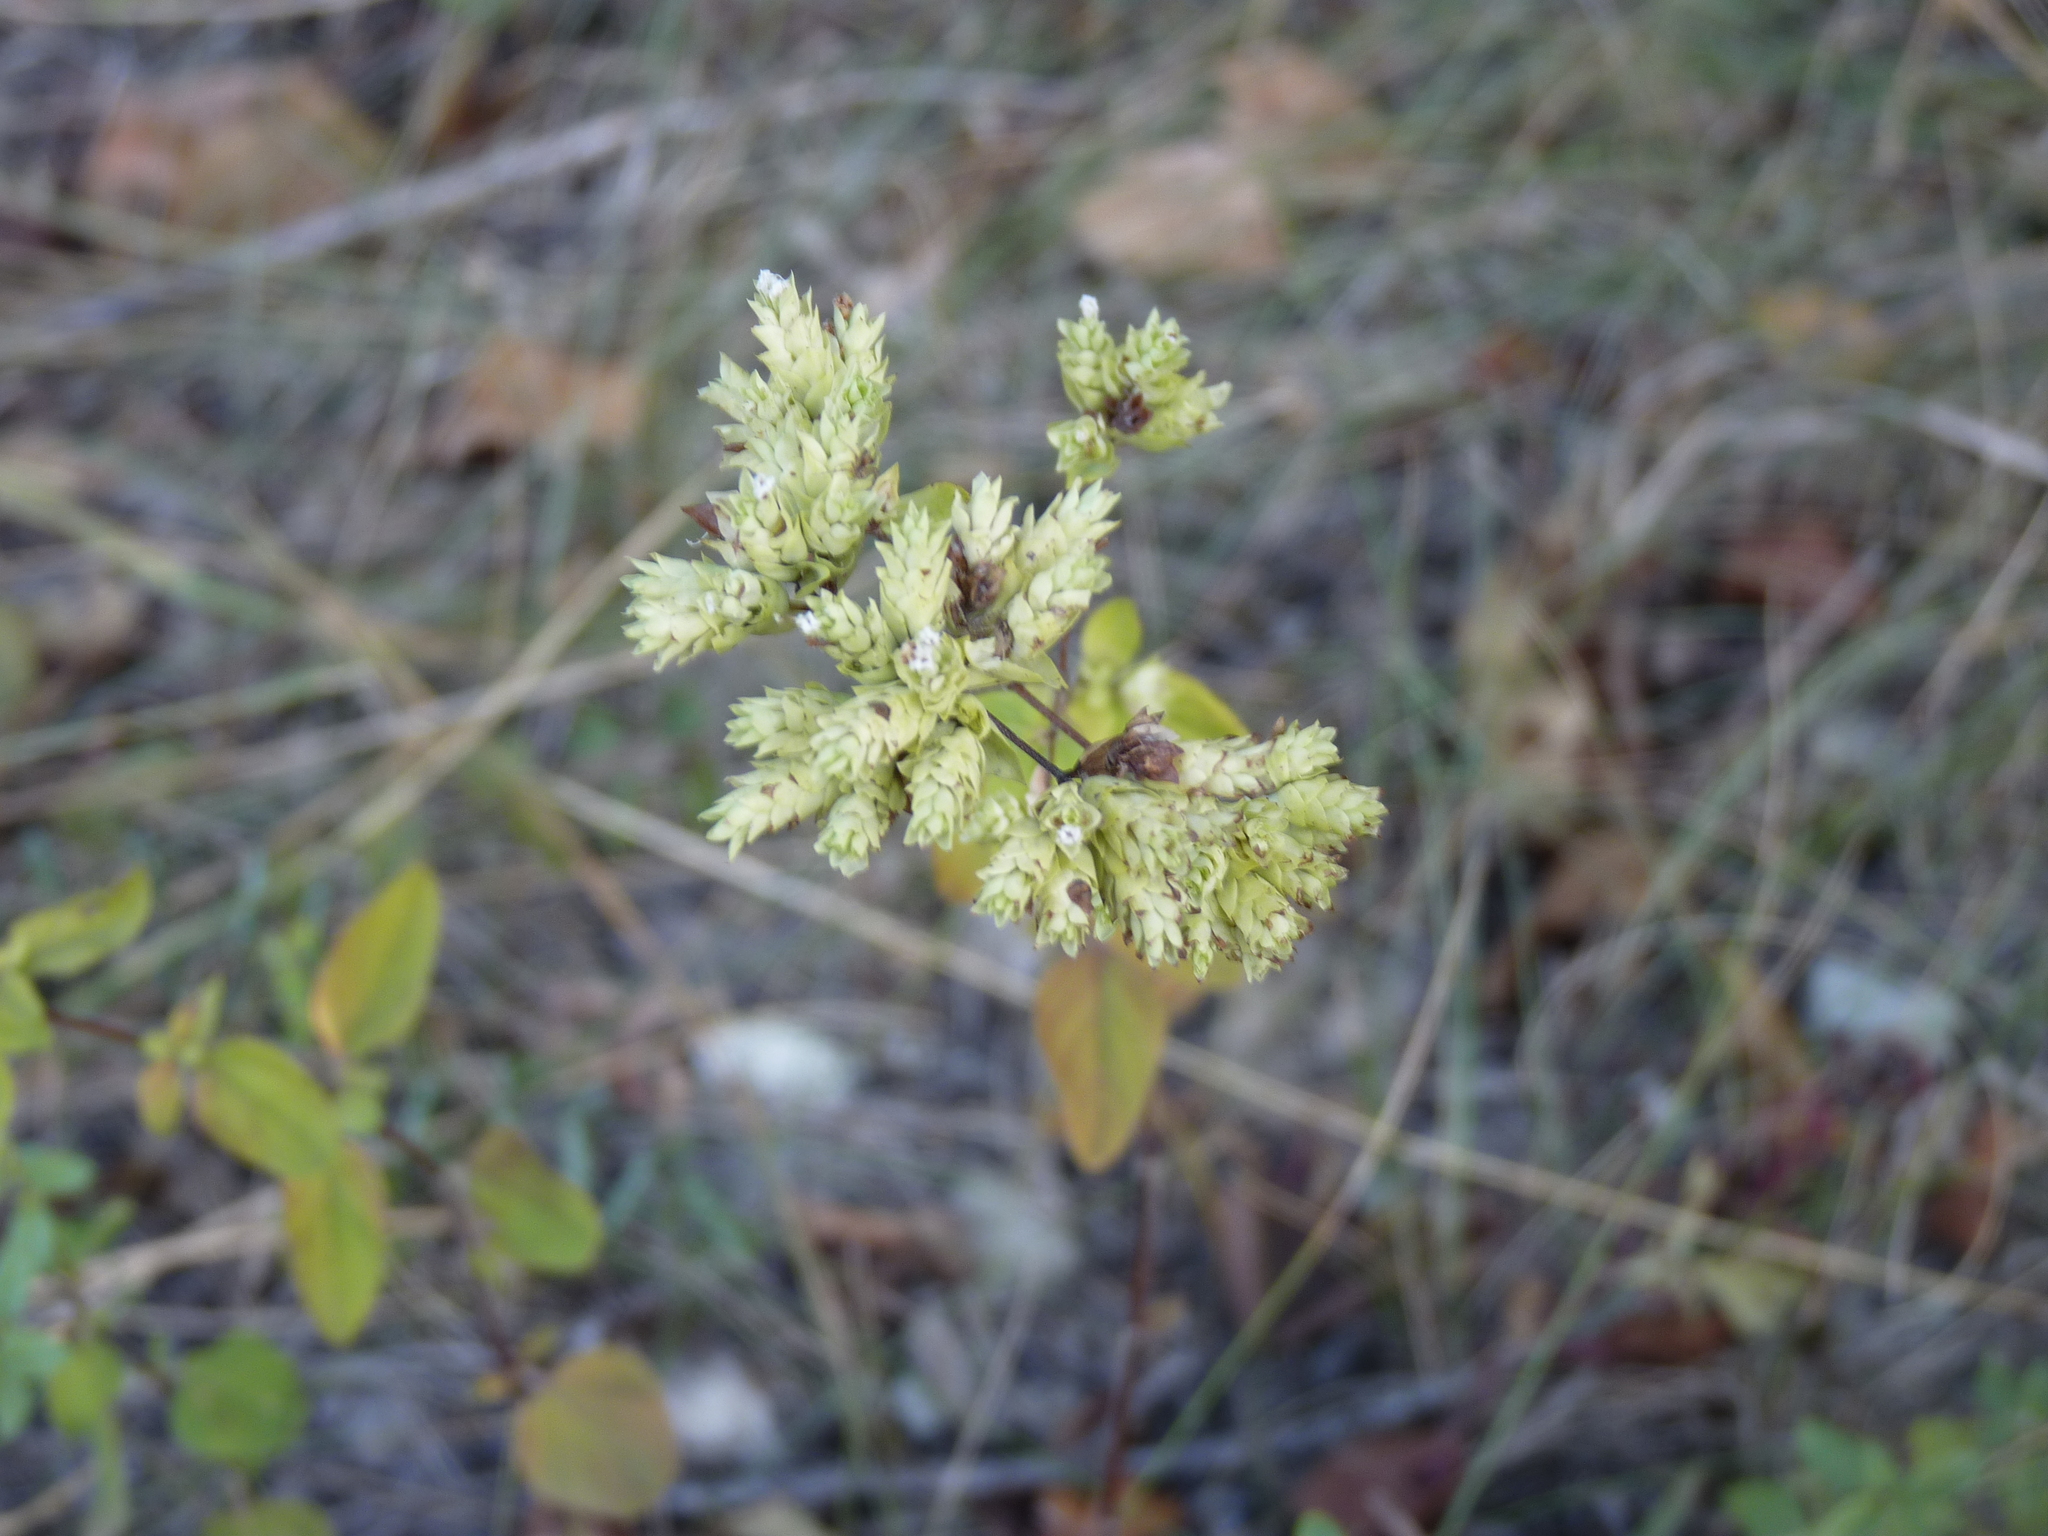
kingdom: Plantae
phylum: Tracheophyta
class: Magnoliopsida
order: Lamiales
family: Lamiaceae
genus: Origanum
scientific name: Origanum vulgare
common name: Wild marjoram
